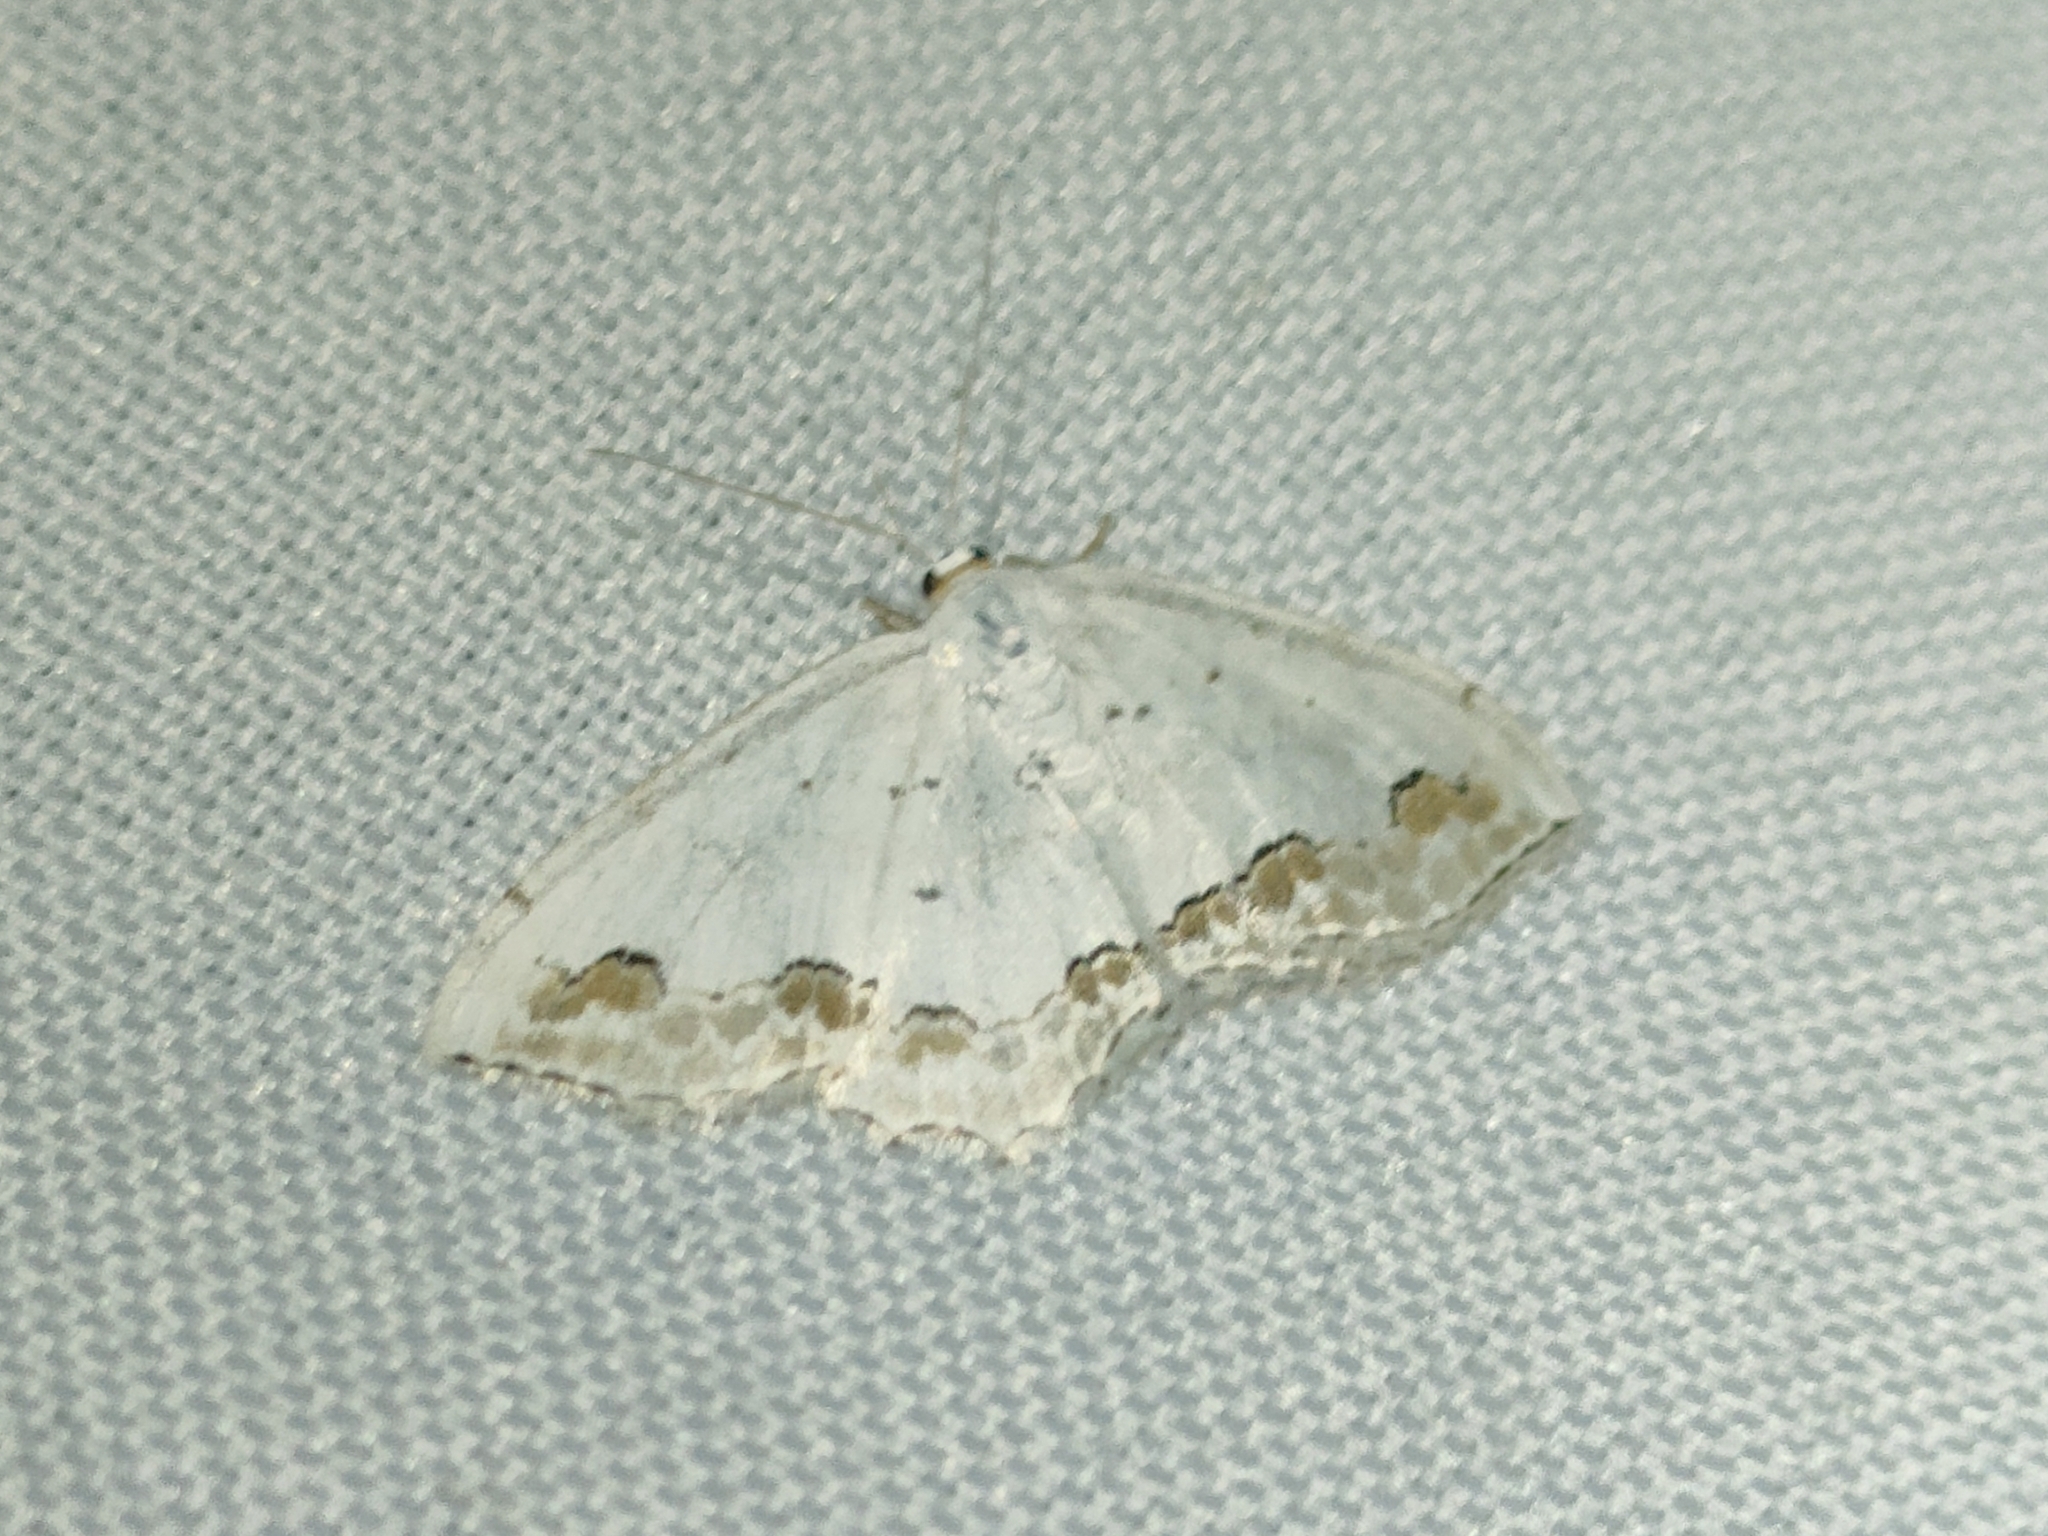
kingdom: Animalia
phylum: Arthropoda
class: Insecta
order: Lepidoptera
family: Geometridae
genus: Scopula
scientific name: Scopula ornata
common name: Lace border
